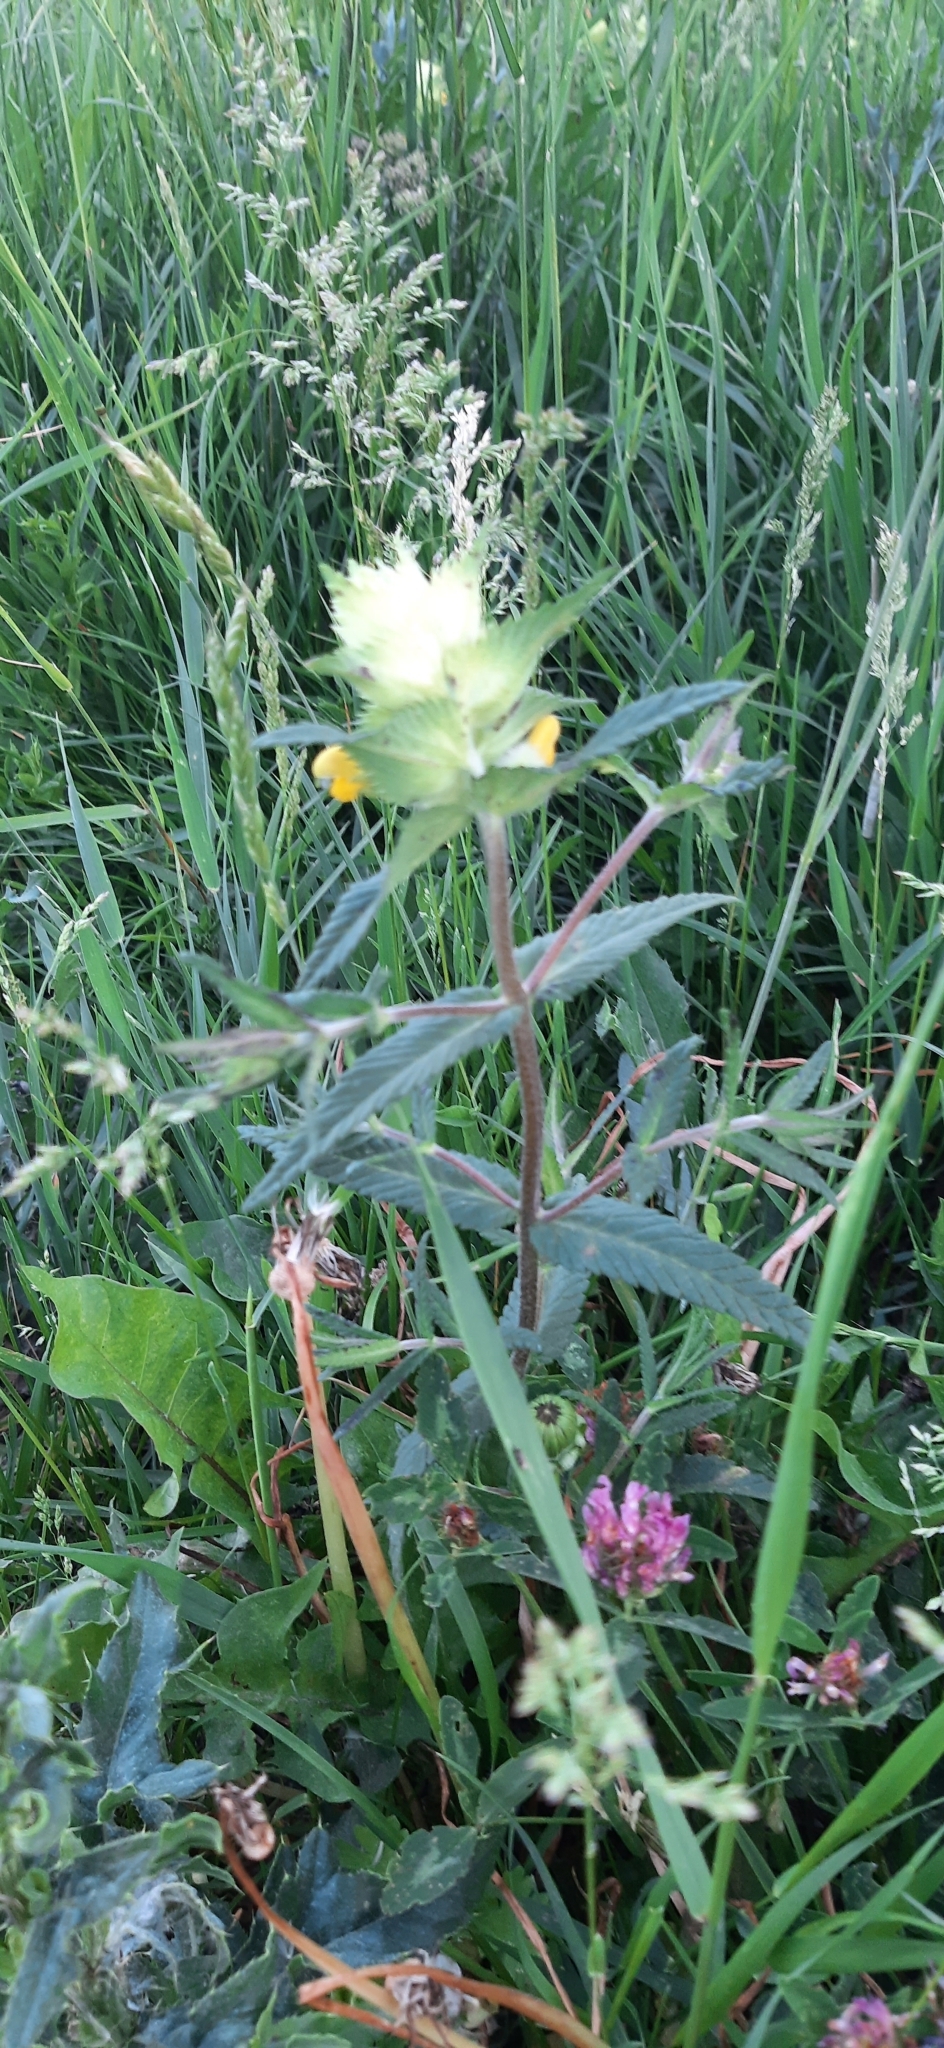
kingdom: Plantae
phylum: Tracheophyta
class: Magnoliopsida
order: Lamiales
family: Orobanchaceae
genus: Rhinanthus
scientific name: Rhinanthus alectorolophus
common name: Greater yellow-rattle
